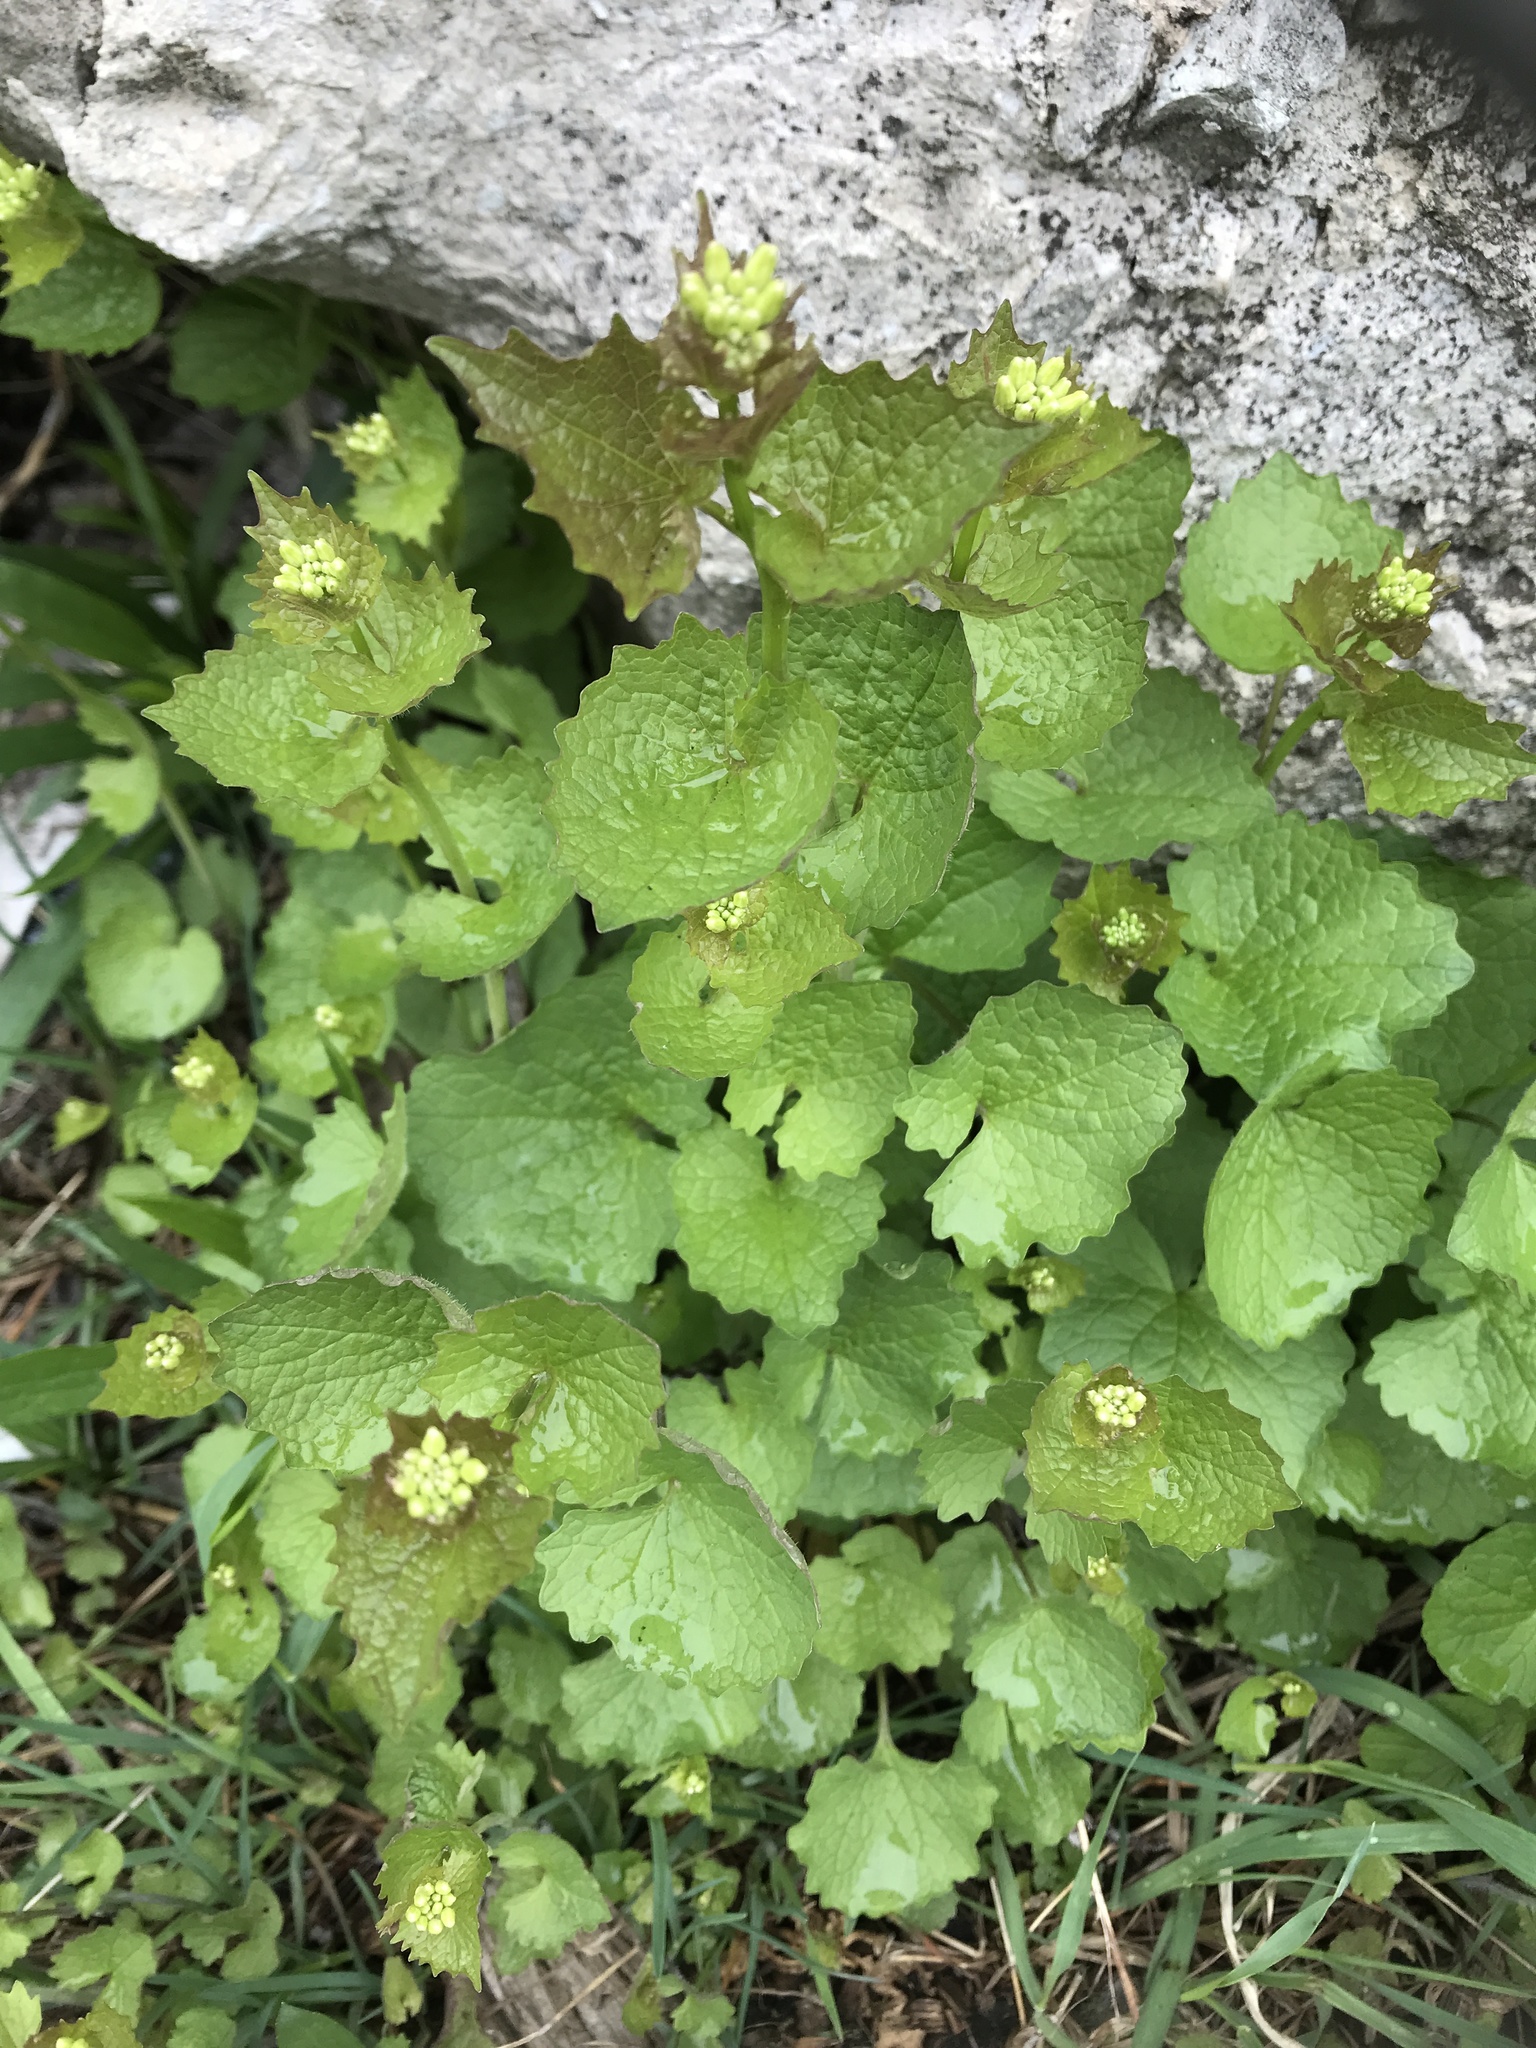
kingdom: Plantae
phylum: Tracheophyta
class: Magnoliopsida
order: Brassicales
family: Brassicaceae
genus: Alliaria
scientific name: Alliaria petiolata
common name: Garlic mustard
